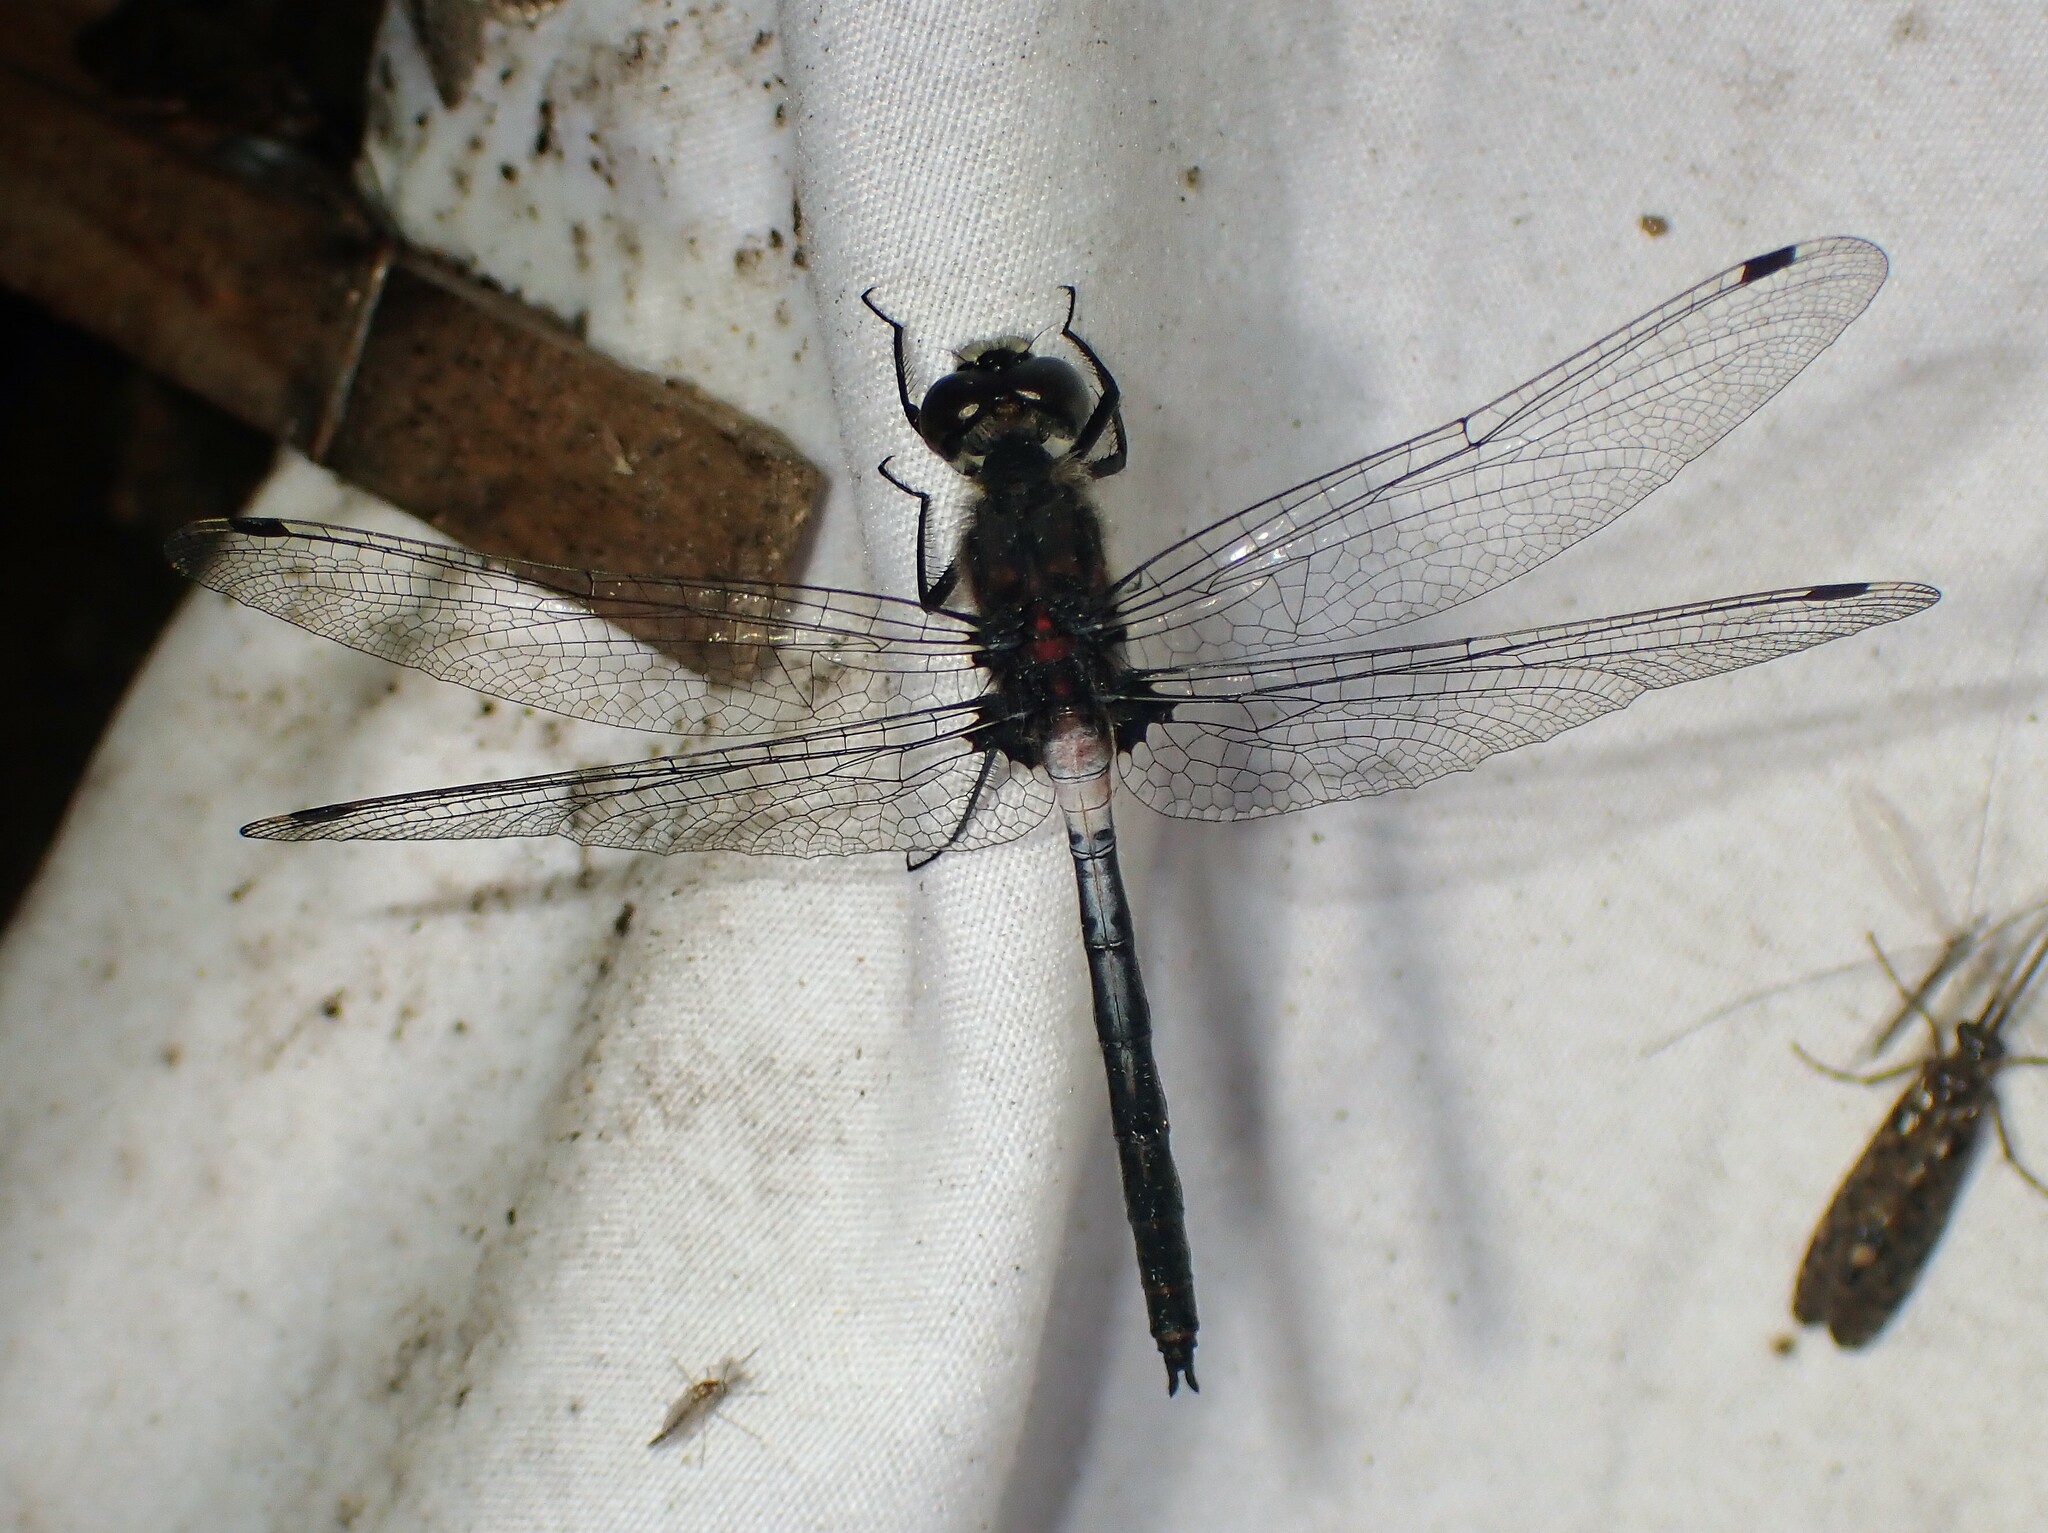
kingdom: Animalia
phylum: Arthropoda
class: Insecta
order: Odonata
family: Libellulidae
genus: Leucorrhinia
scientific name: Leucorrhinia proxima
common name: Belted whiteface
